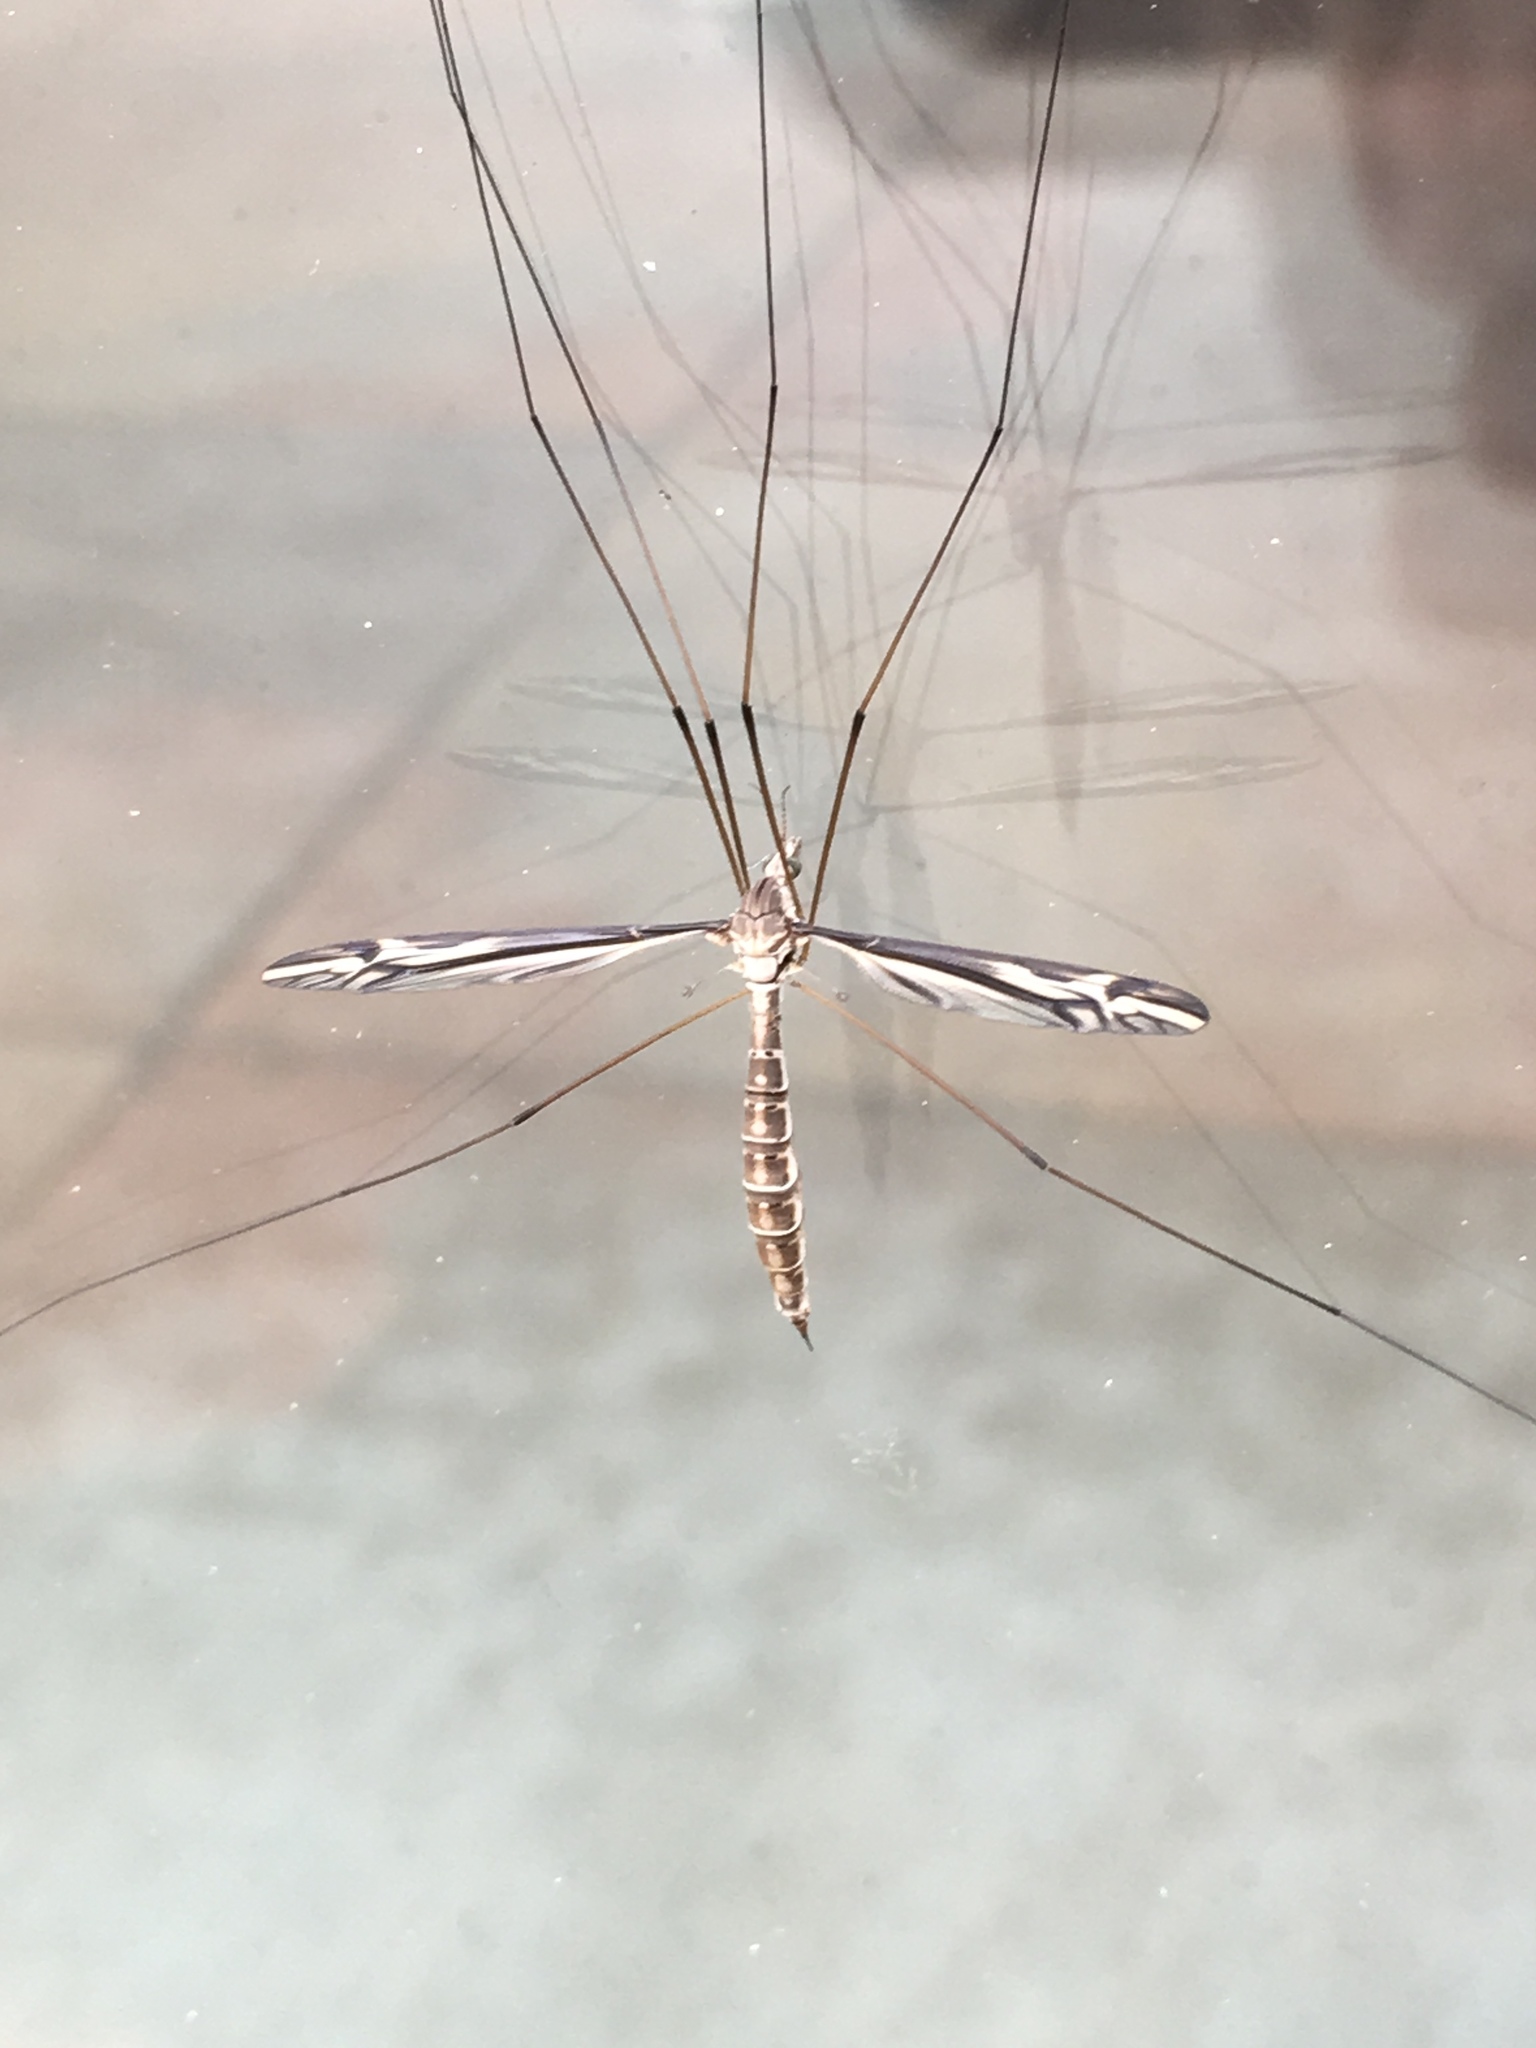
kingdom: Animalia
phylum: Arthropoda
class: Insecta
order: Diptera
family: Tipulidae
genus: Tipula
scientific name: Tipula furca
